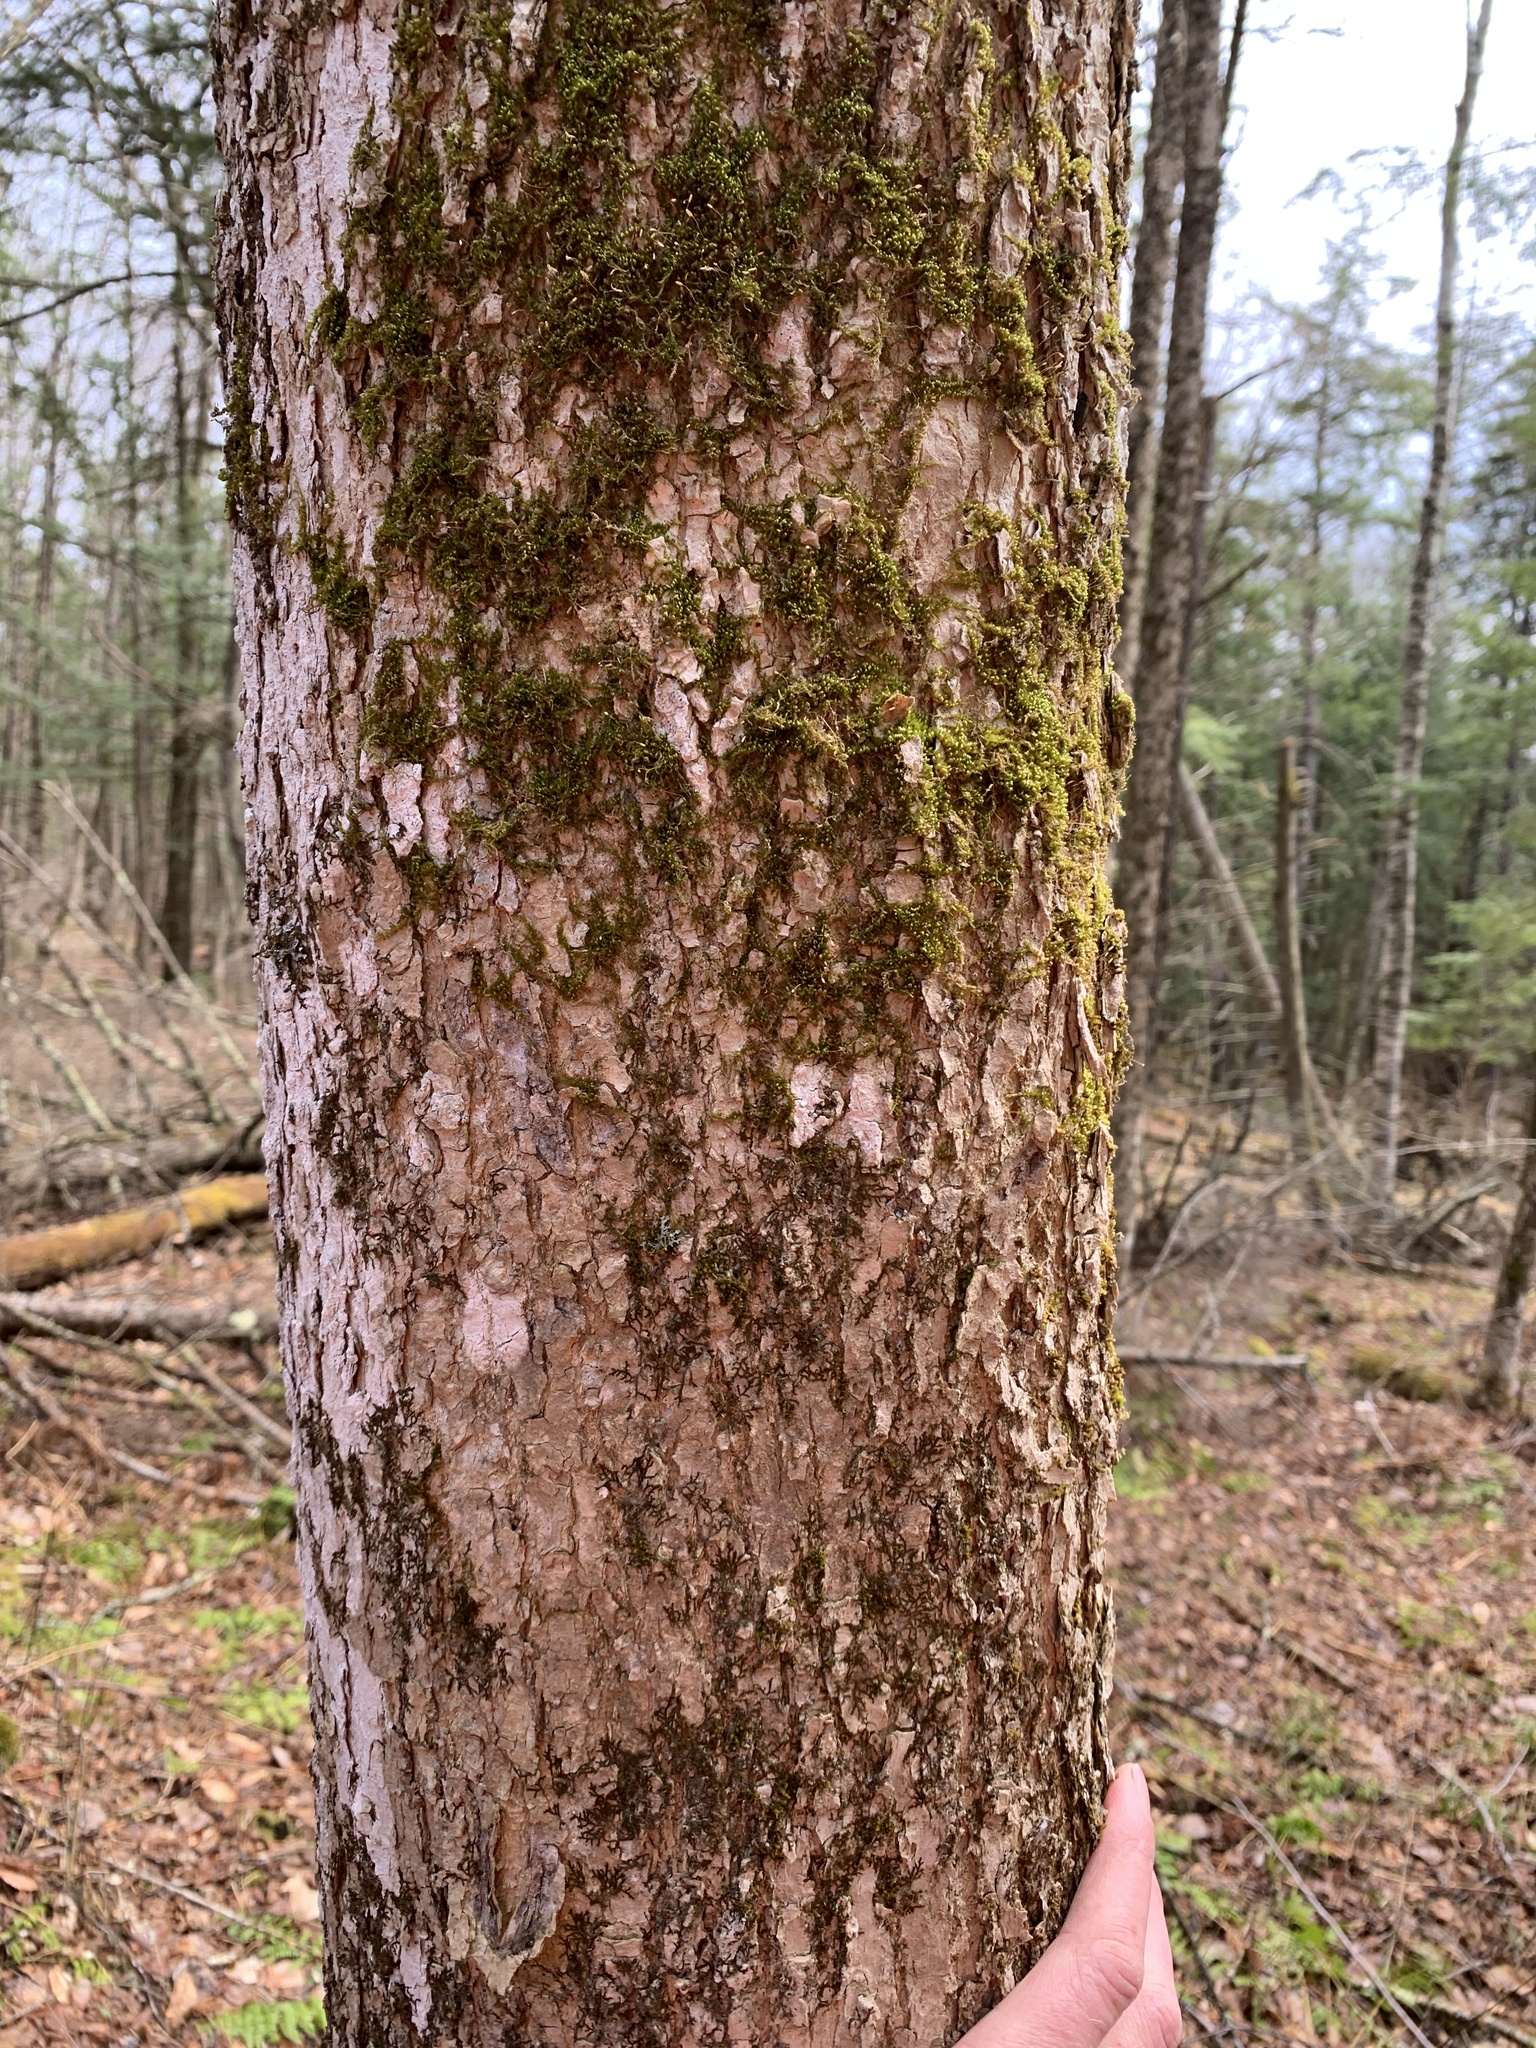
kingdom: Plantae
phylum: Tracheophyta
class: Magnoliopsida
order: Lamiales
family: Oleaceae
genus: Fraxinus
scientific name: Fraxinus nigra
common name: Black ash
